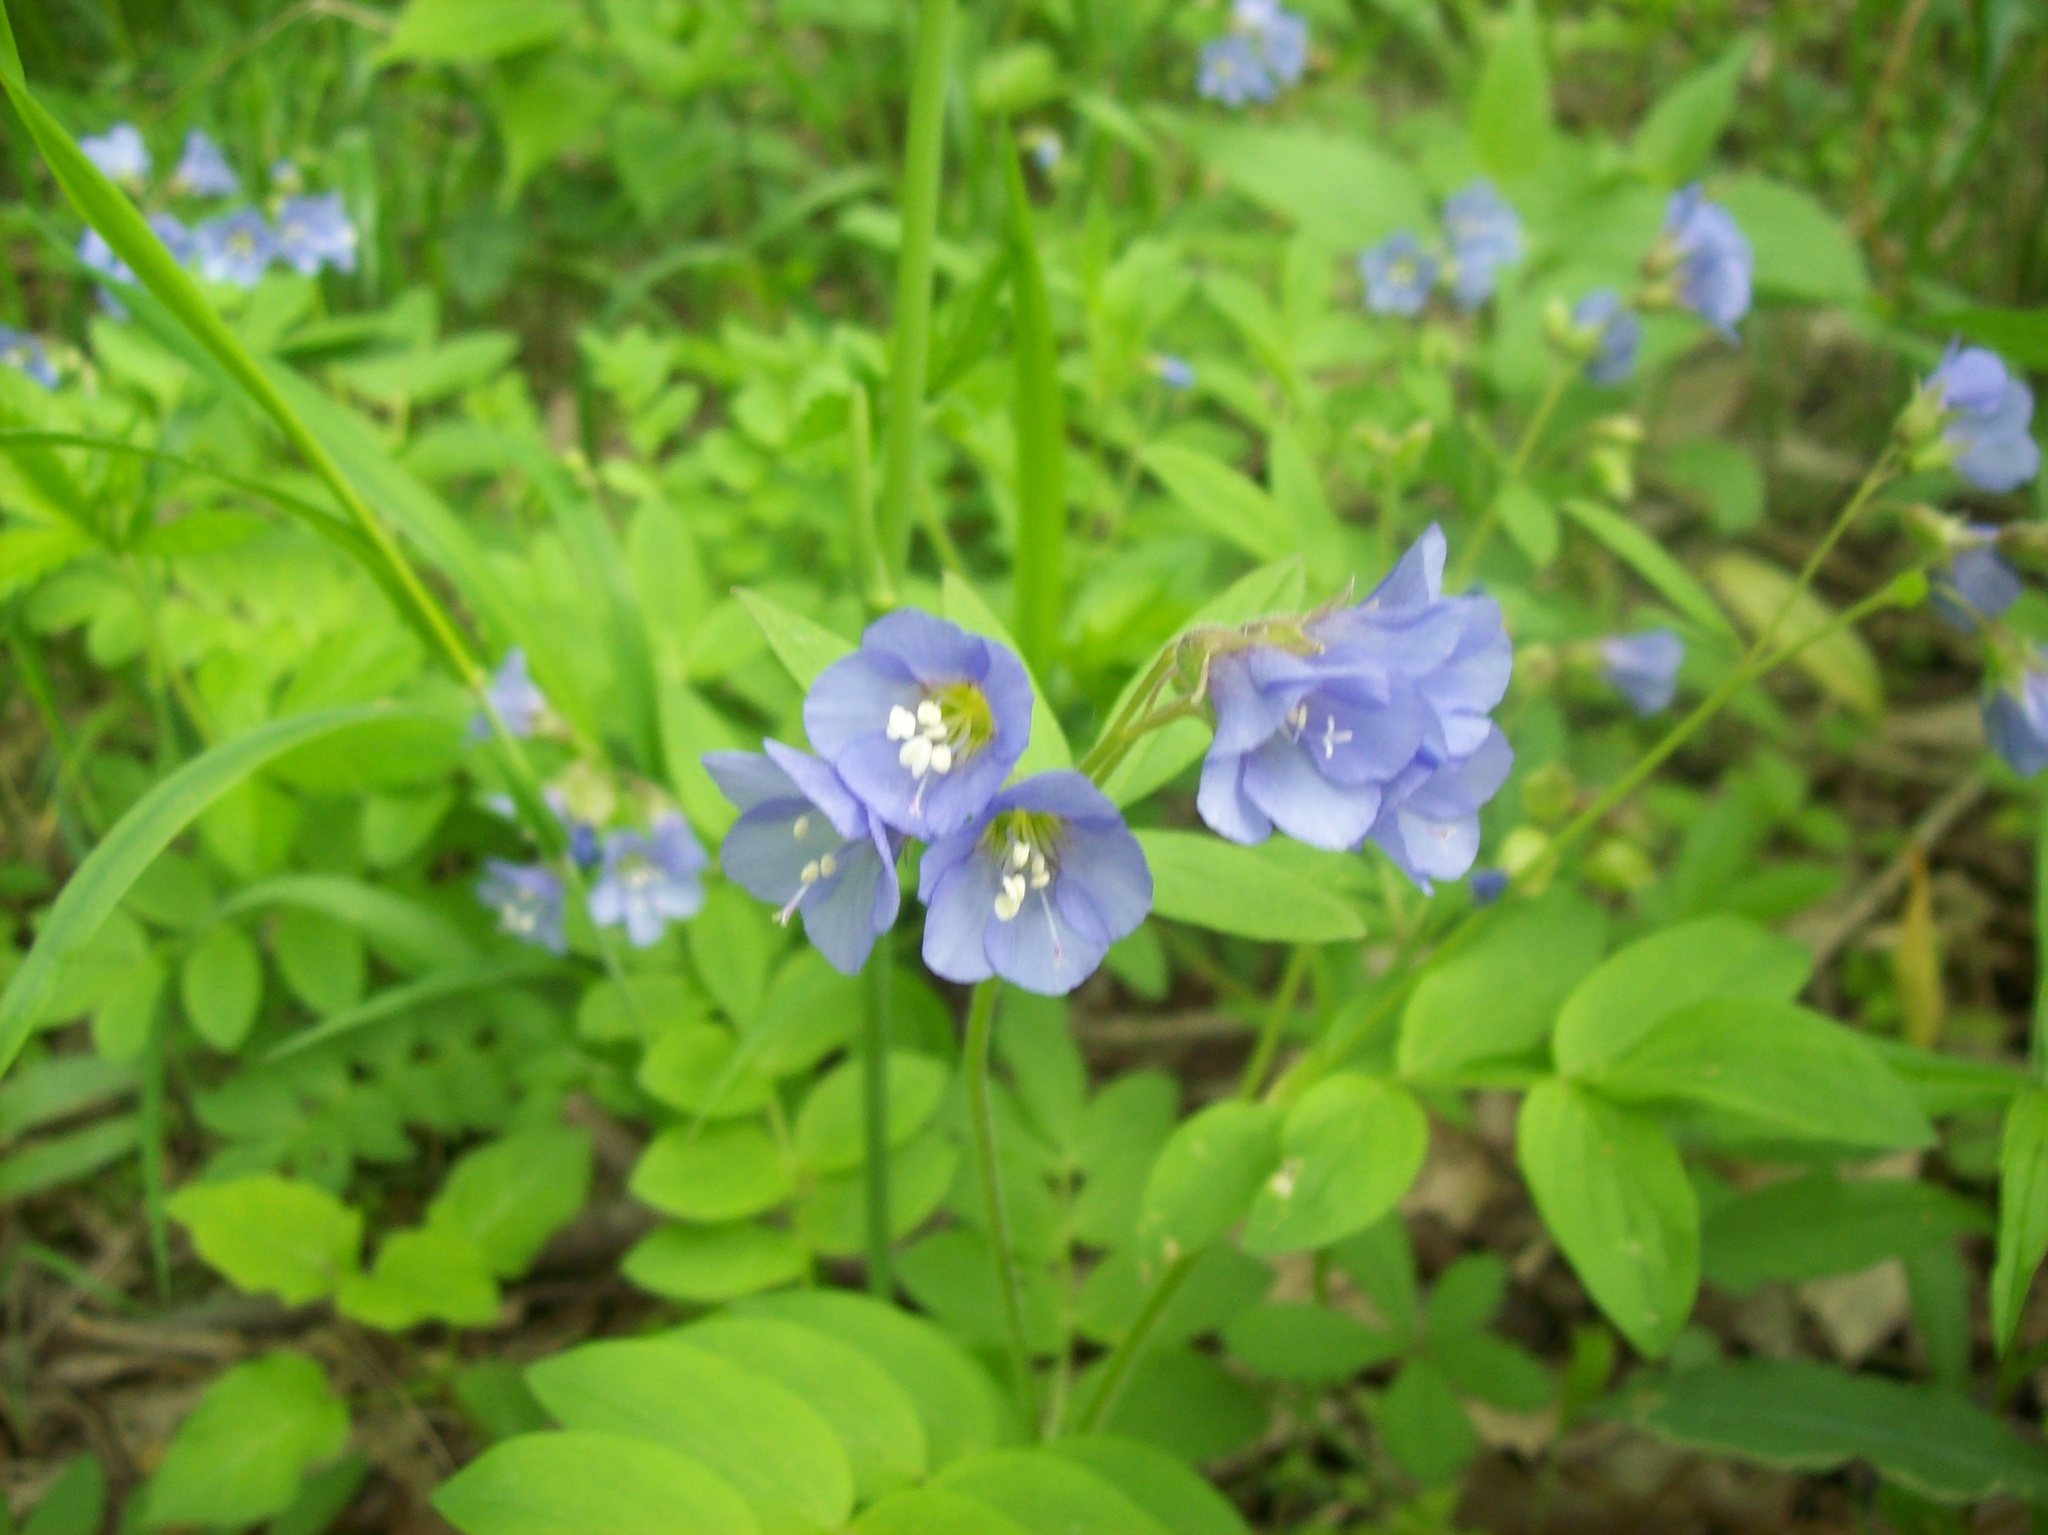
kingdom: Plantae
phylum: Tracheophyta
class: Magnoliopsida
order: Ericales
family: Polemoniaceae
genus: Polemonium
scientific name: Polemonium reptans
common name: Creeping jacob's-ladder
